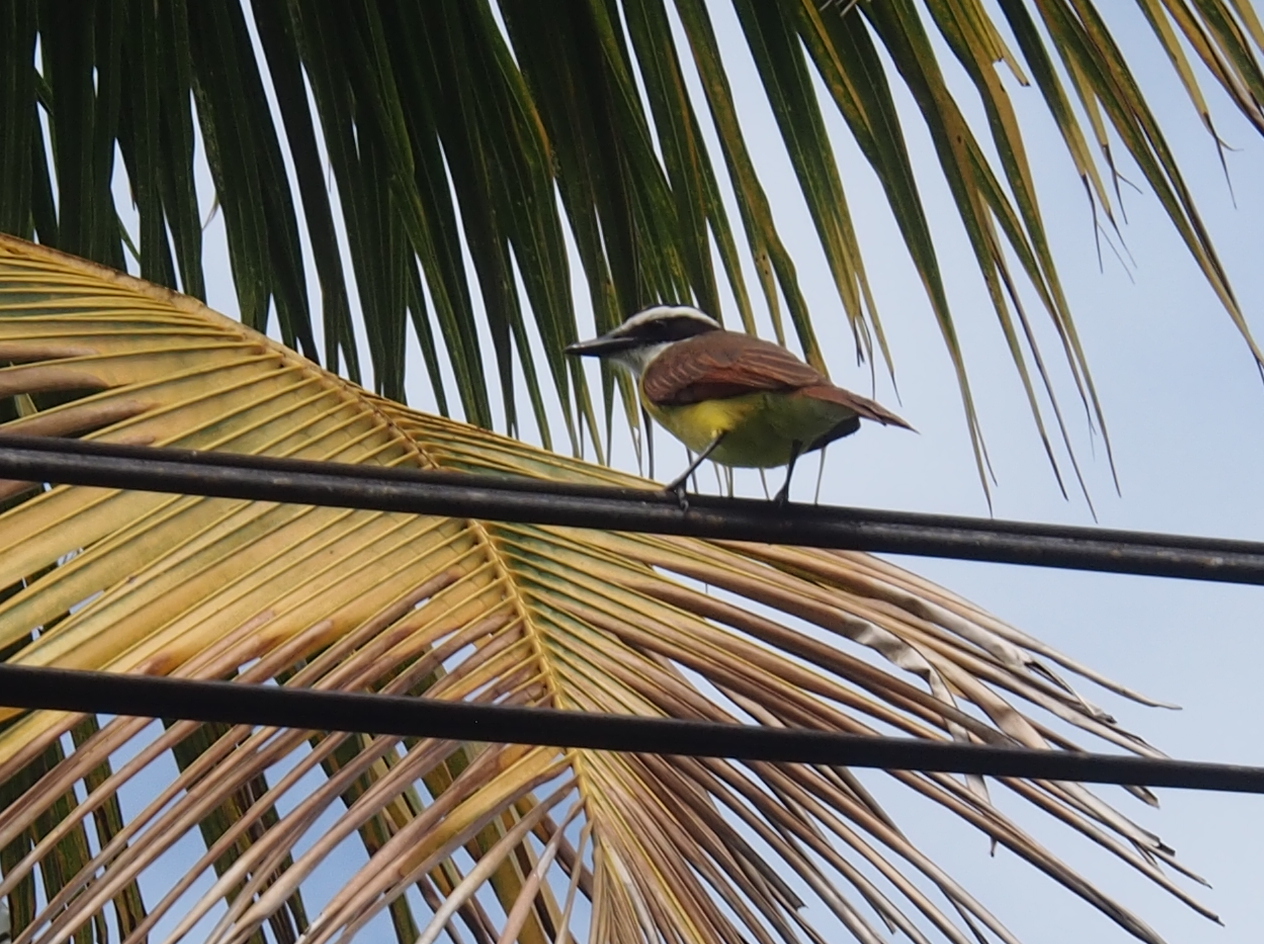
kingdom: Animalia
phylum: Chordata
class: Aves
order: Passeriformes
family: Tyrannidae
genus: Pitangus
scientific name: Pitangus sulphuratus
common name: Great kiskadee
